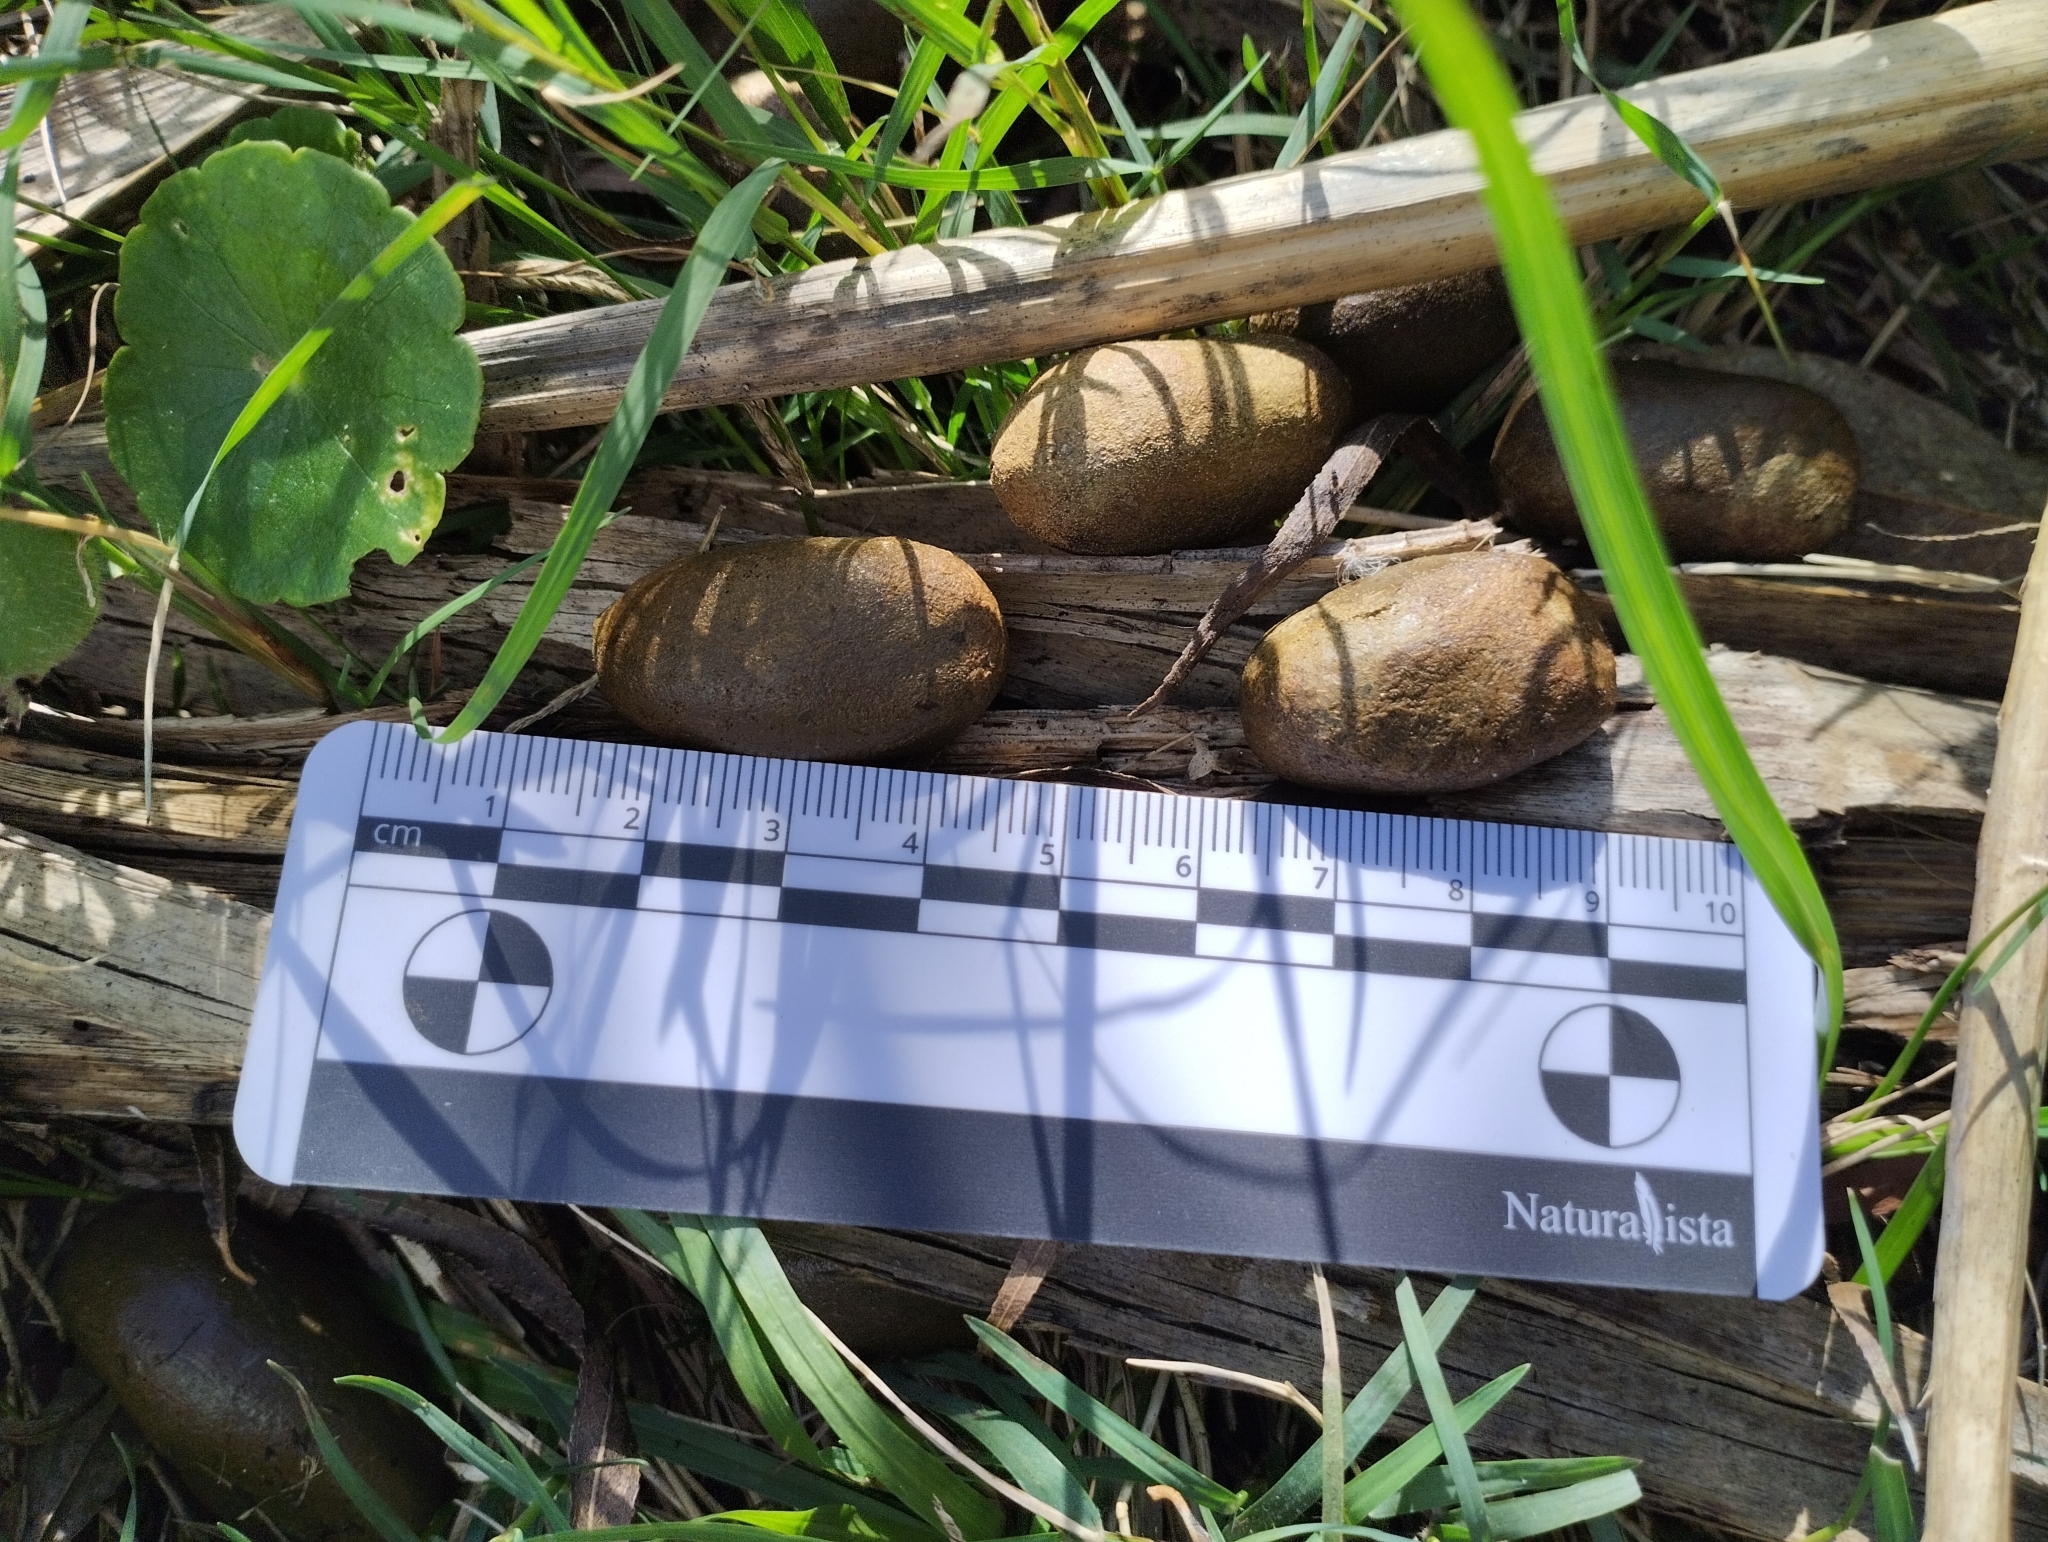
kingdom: Animalia
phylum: Chordata
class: Mammalia
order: Rodentia
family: Caviidae
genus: Hydrochoerus
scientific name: Hydrochoerus hydrochaeris
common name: Capybara
